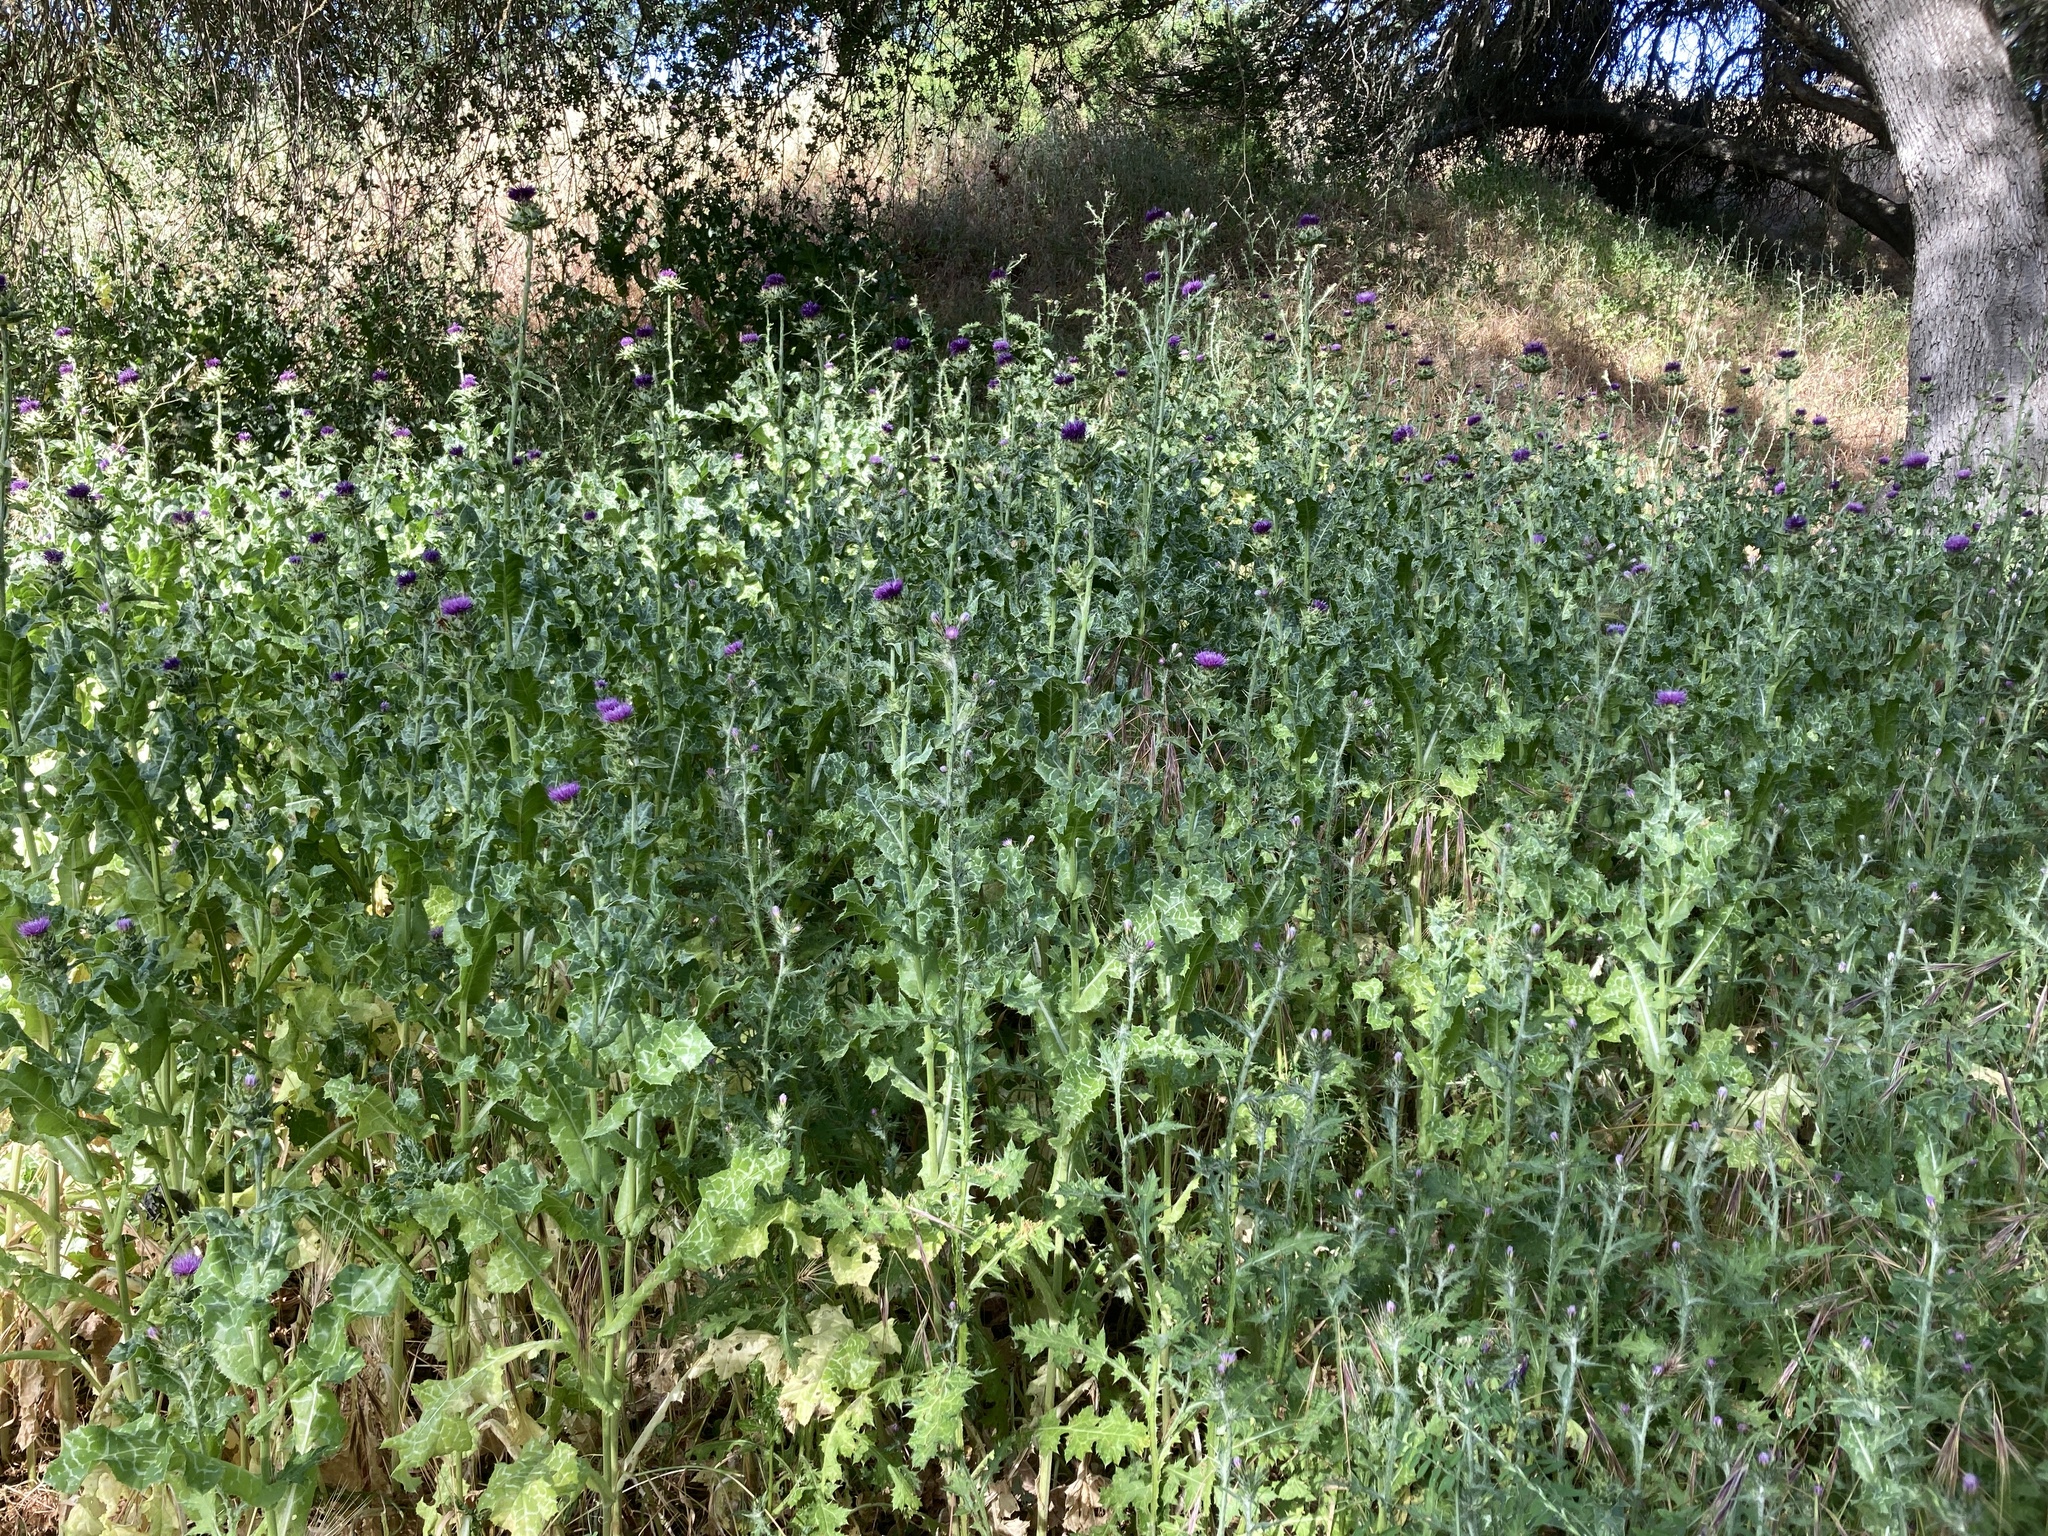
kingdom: Plantae
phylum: Tracheophyta
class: Magnoliopsida
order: Asterales
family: Asteraceae
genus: Silybum
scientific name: Silybum marianum
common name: Milk thistle
